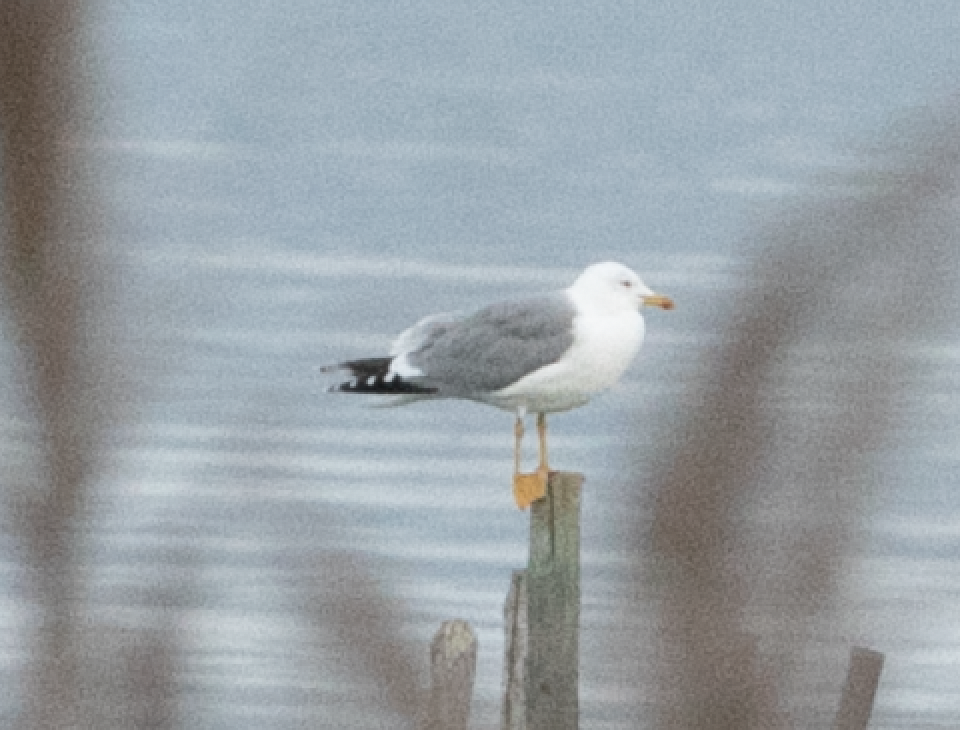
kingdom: Animalia
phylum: Chordata
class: Aves
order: Charadriiformes
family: Laridae
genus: Larus
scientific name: Larus michahellis
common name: Yellow-legged gull
